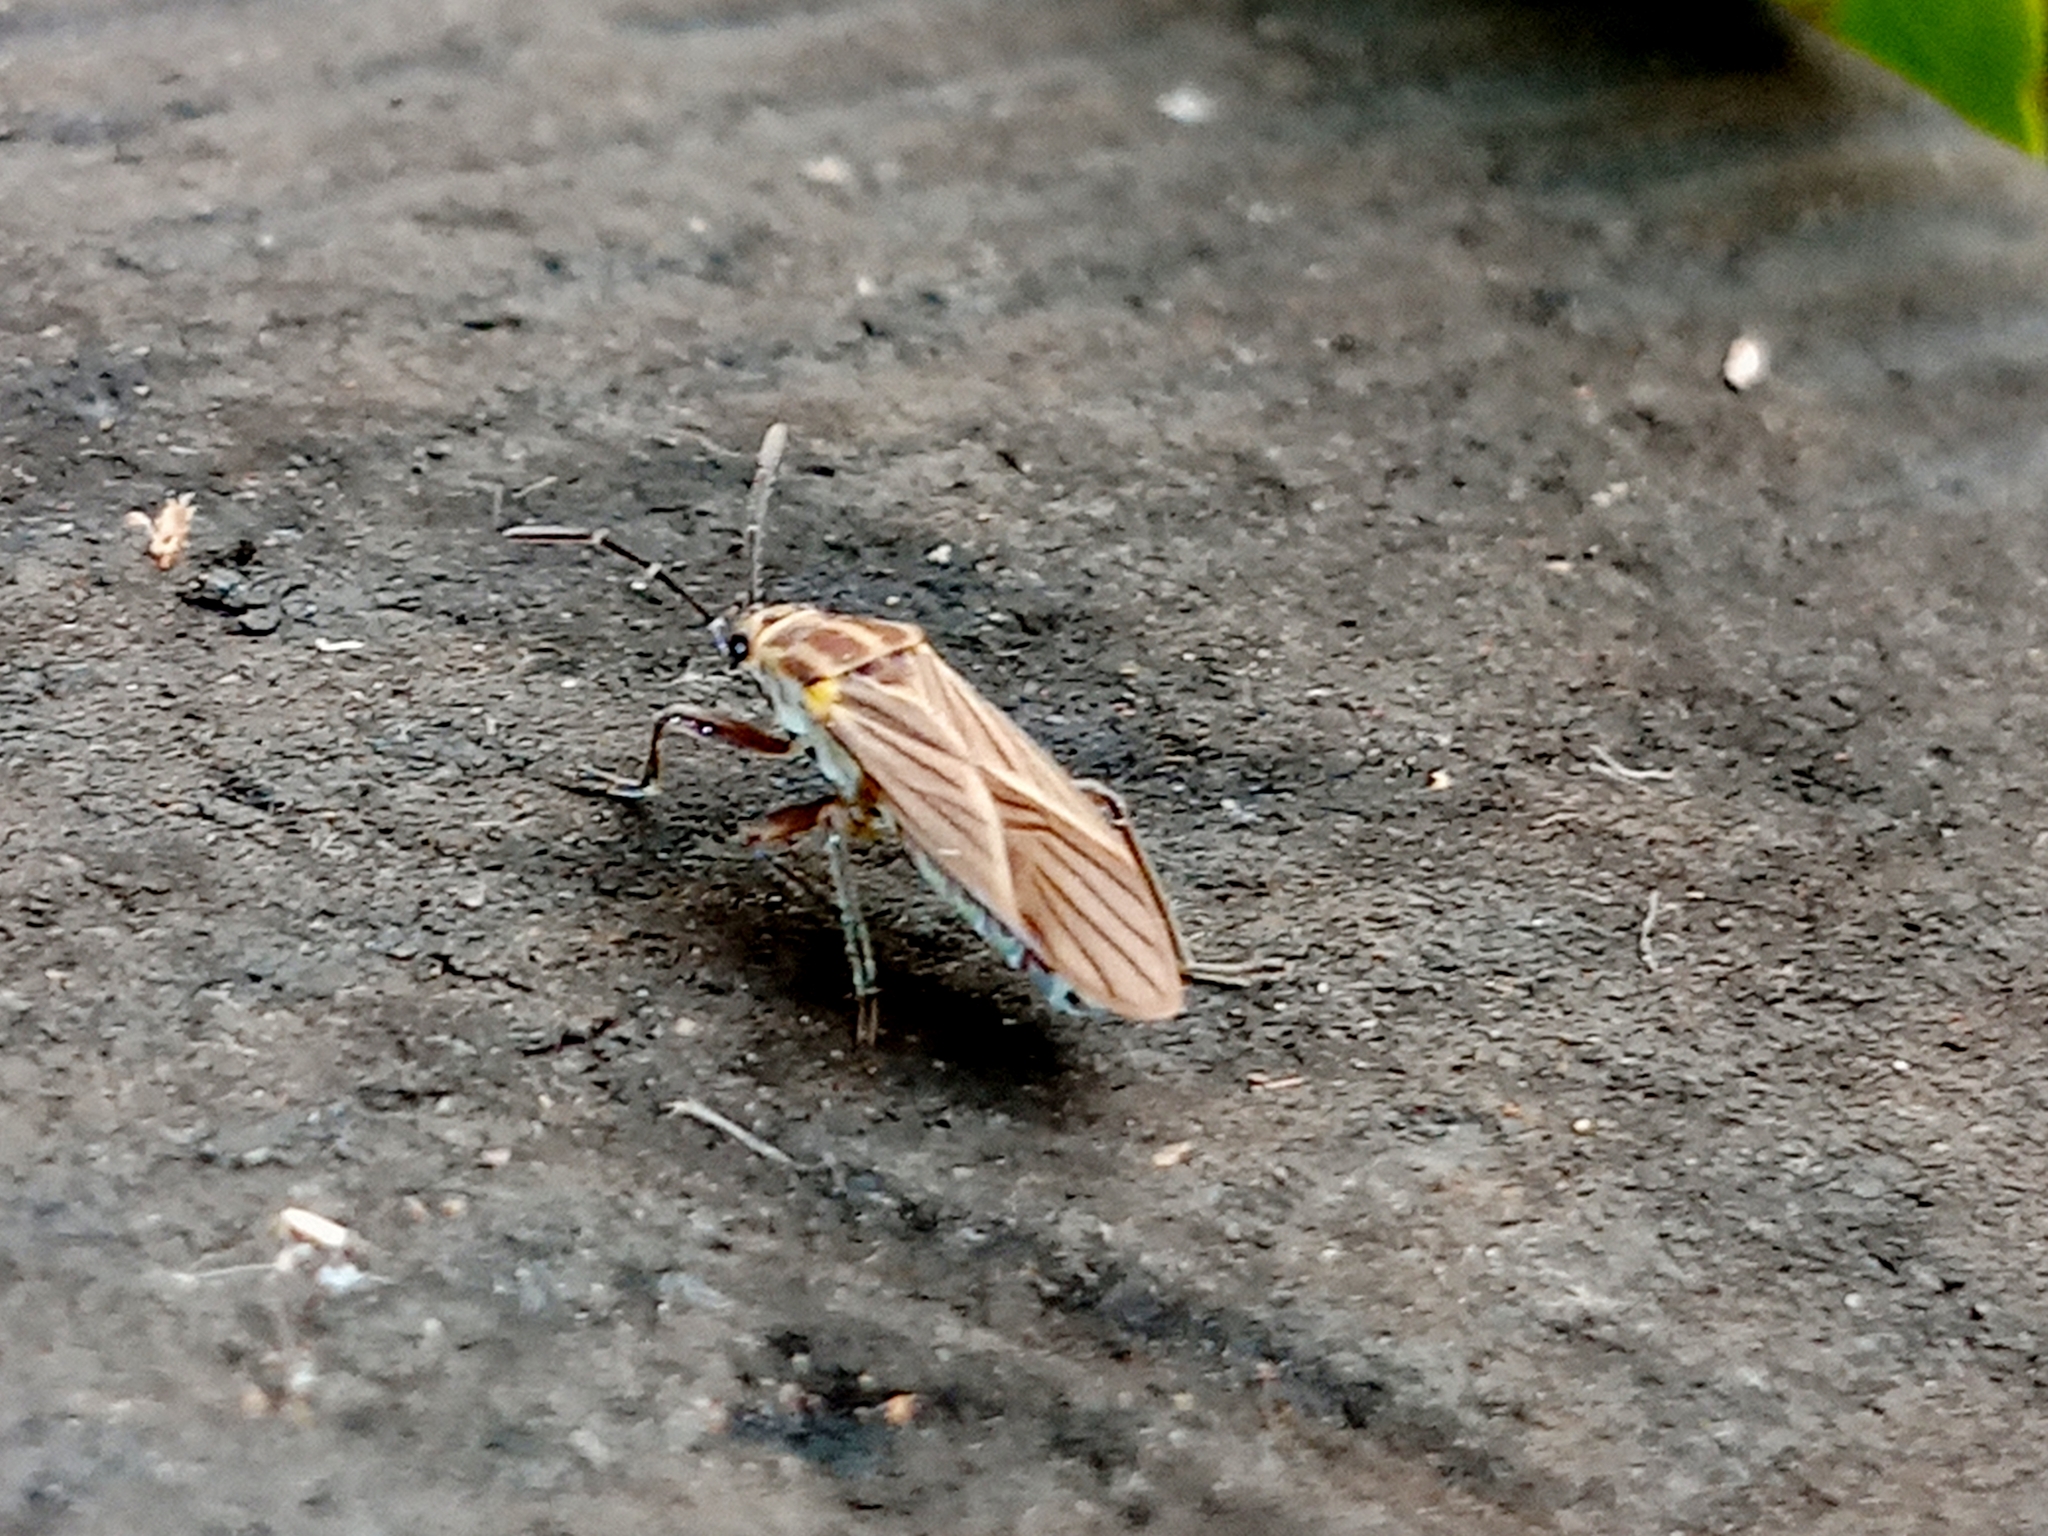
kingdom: Animalia
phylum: Arthropoda
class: Insecta
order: Hemiptera
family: Lygaeidae
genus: Torvochrimnus
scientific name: Torvochrimnus poeyi
